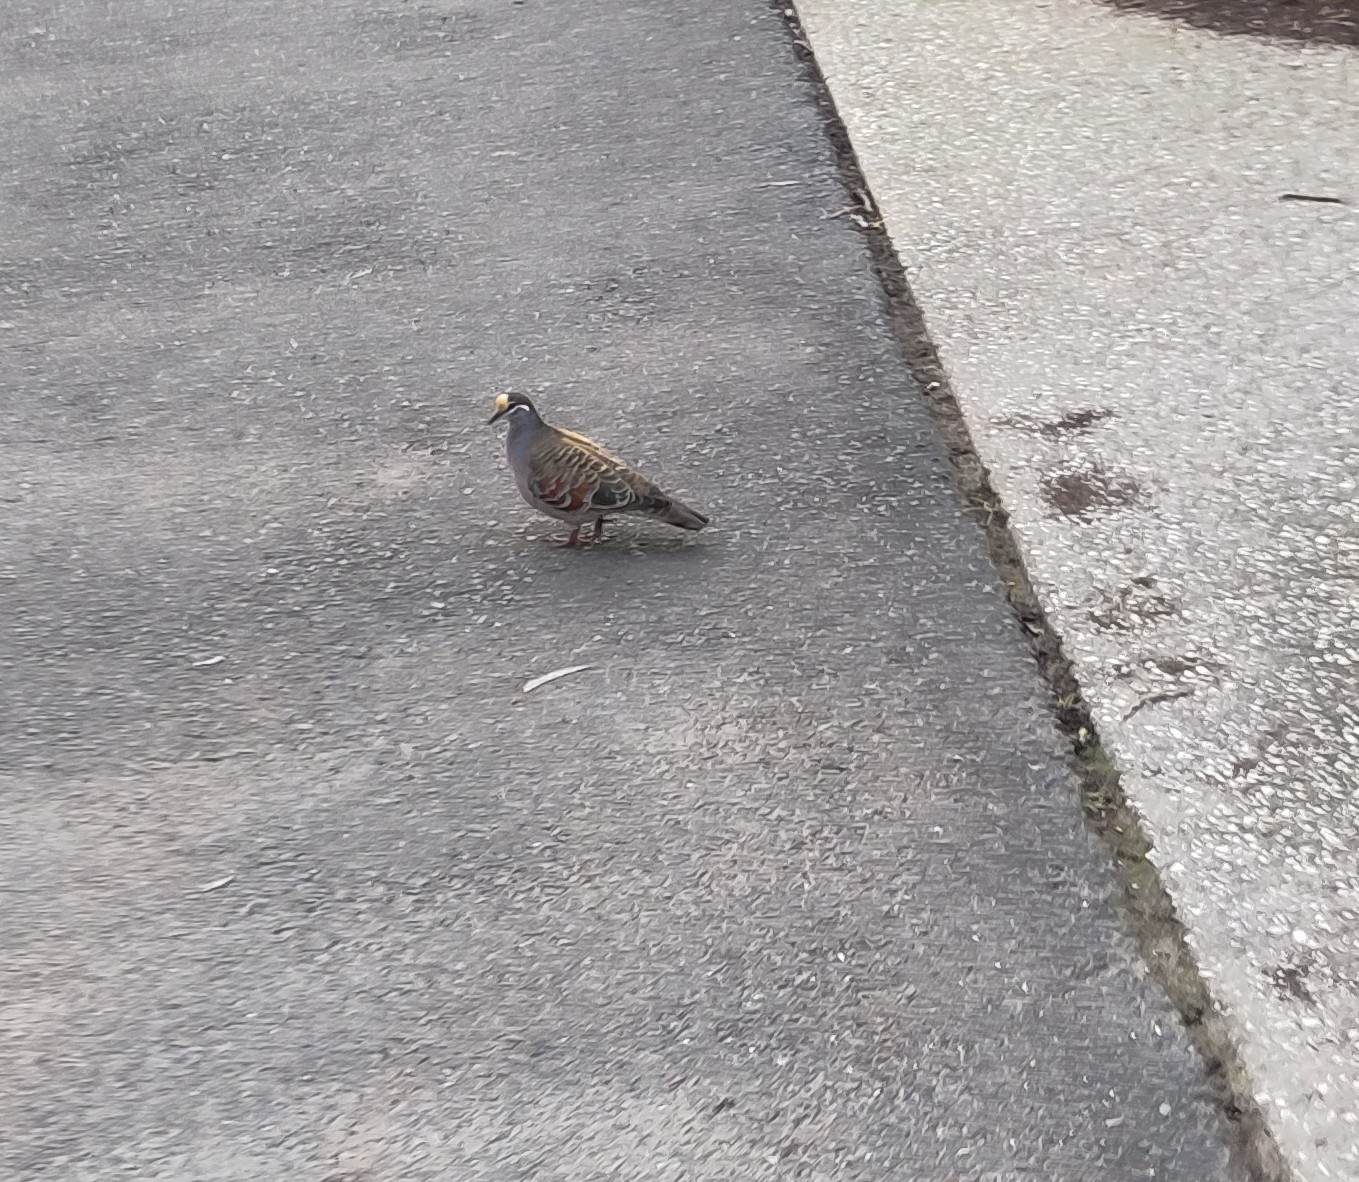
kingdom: Animalia
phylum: Chordata
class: Aves
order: Columbiformes
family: Columbidae
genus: Phaps
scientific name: Phaps chalcoptera
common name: Common bronzewing
